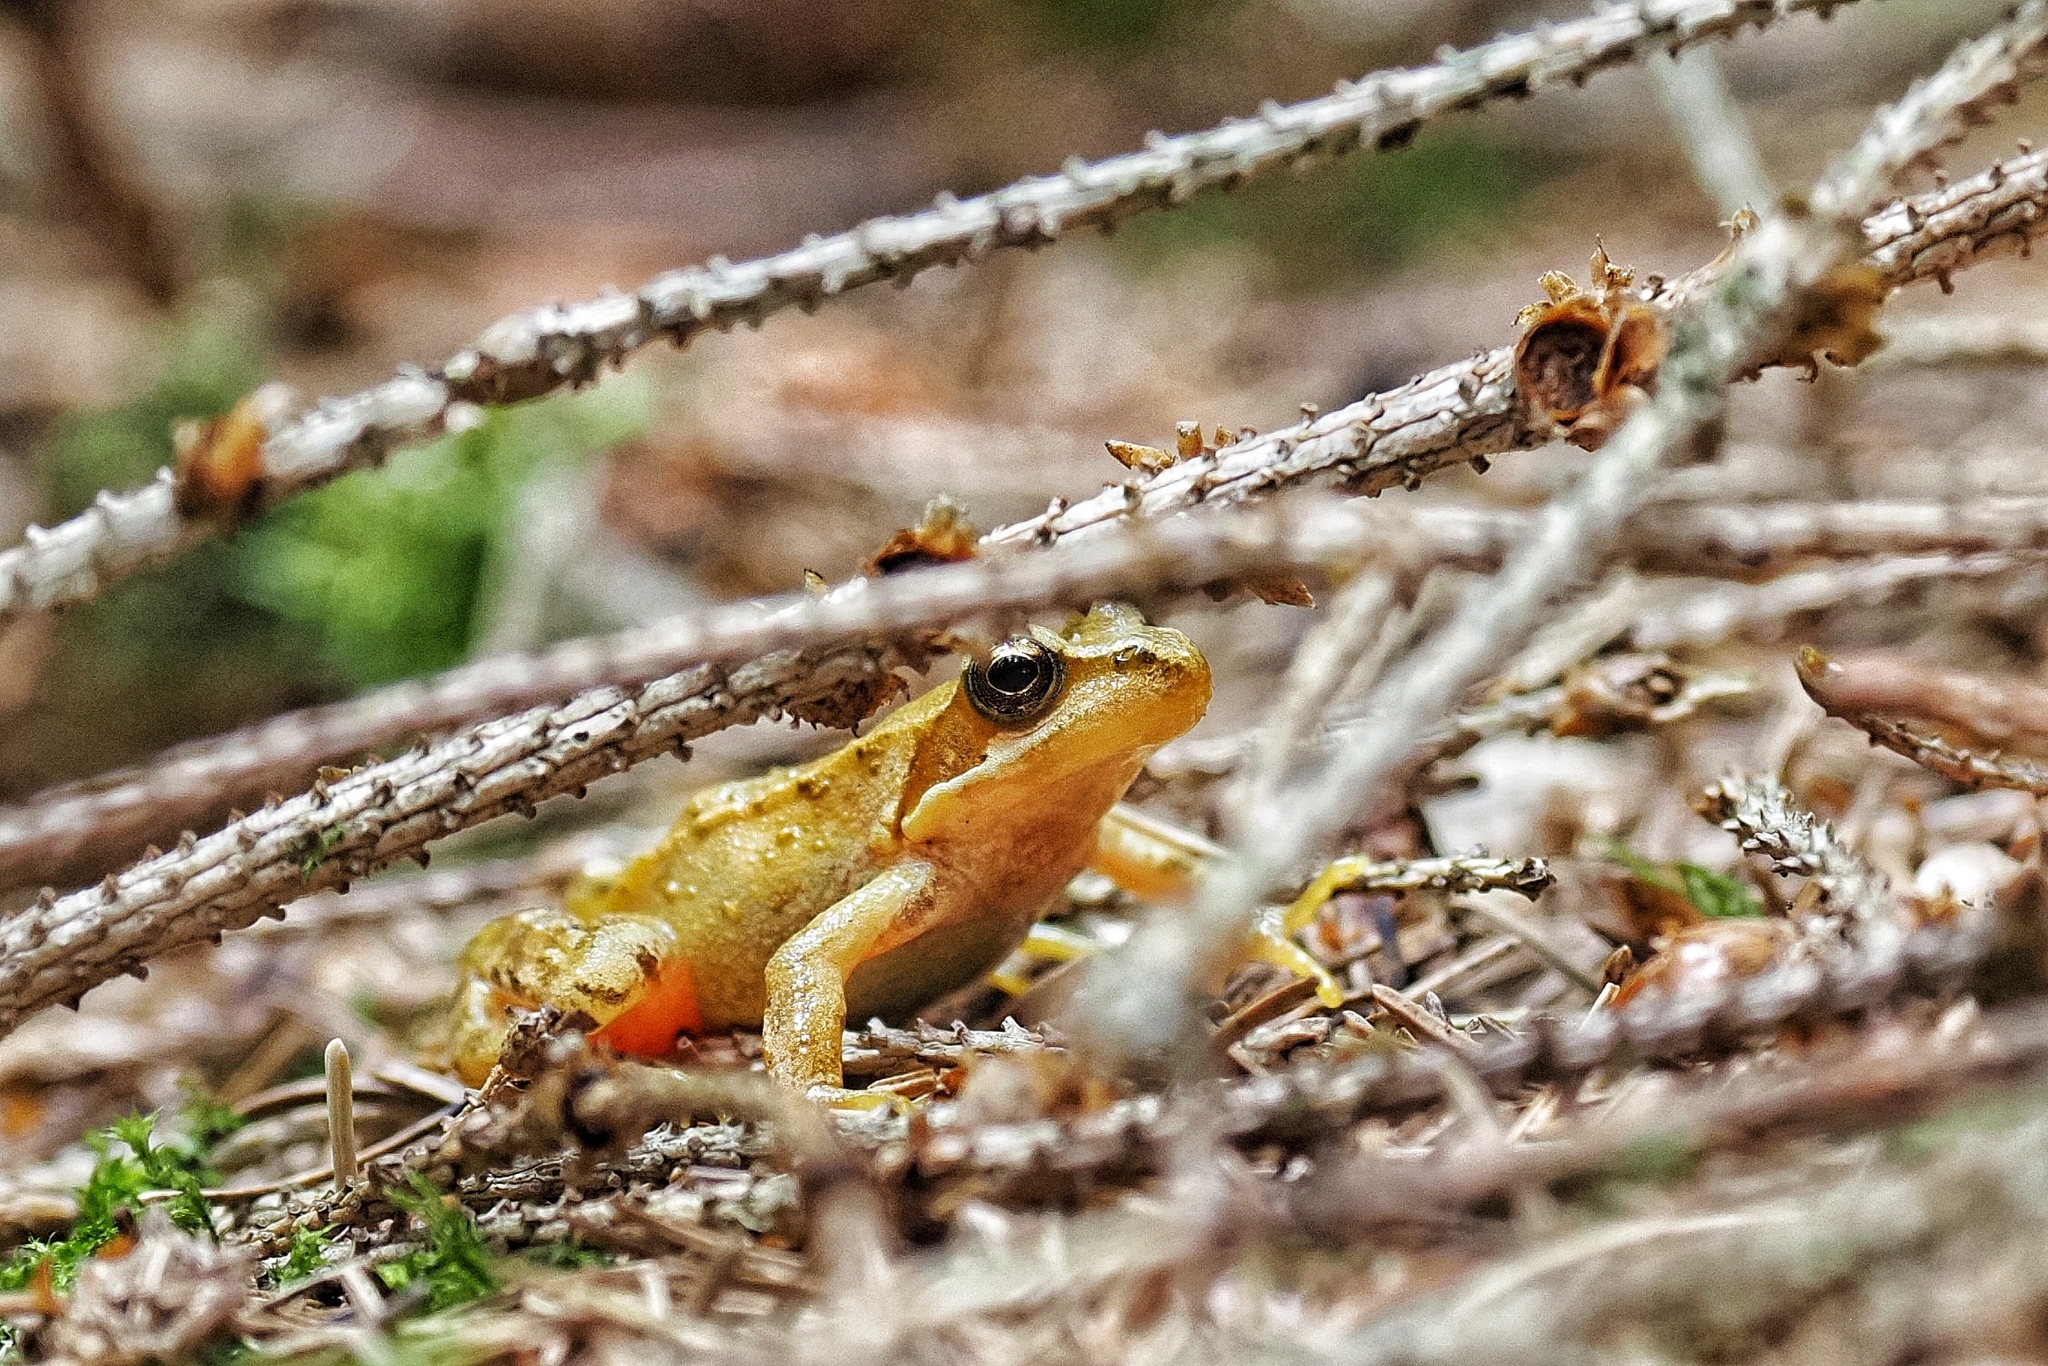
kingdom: Animalia
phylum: Chordata
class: Amphibia
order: Anura
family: Ranidae
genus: Rana
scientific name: Rana temporaria
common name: Common frog
